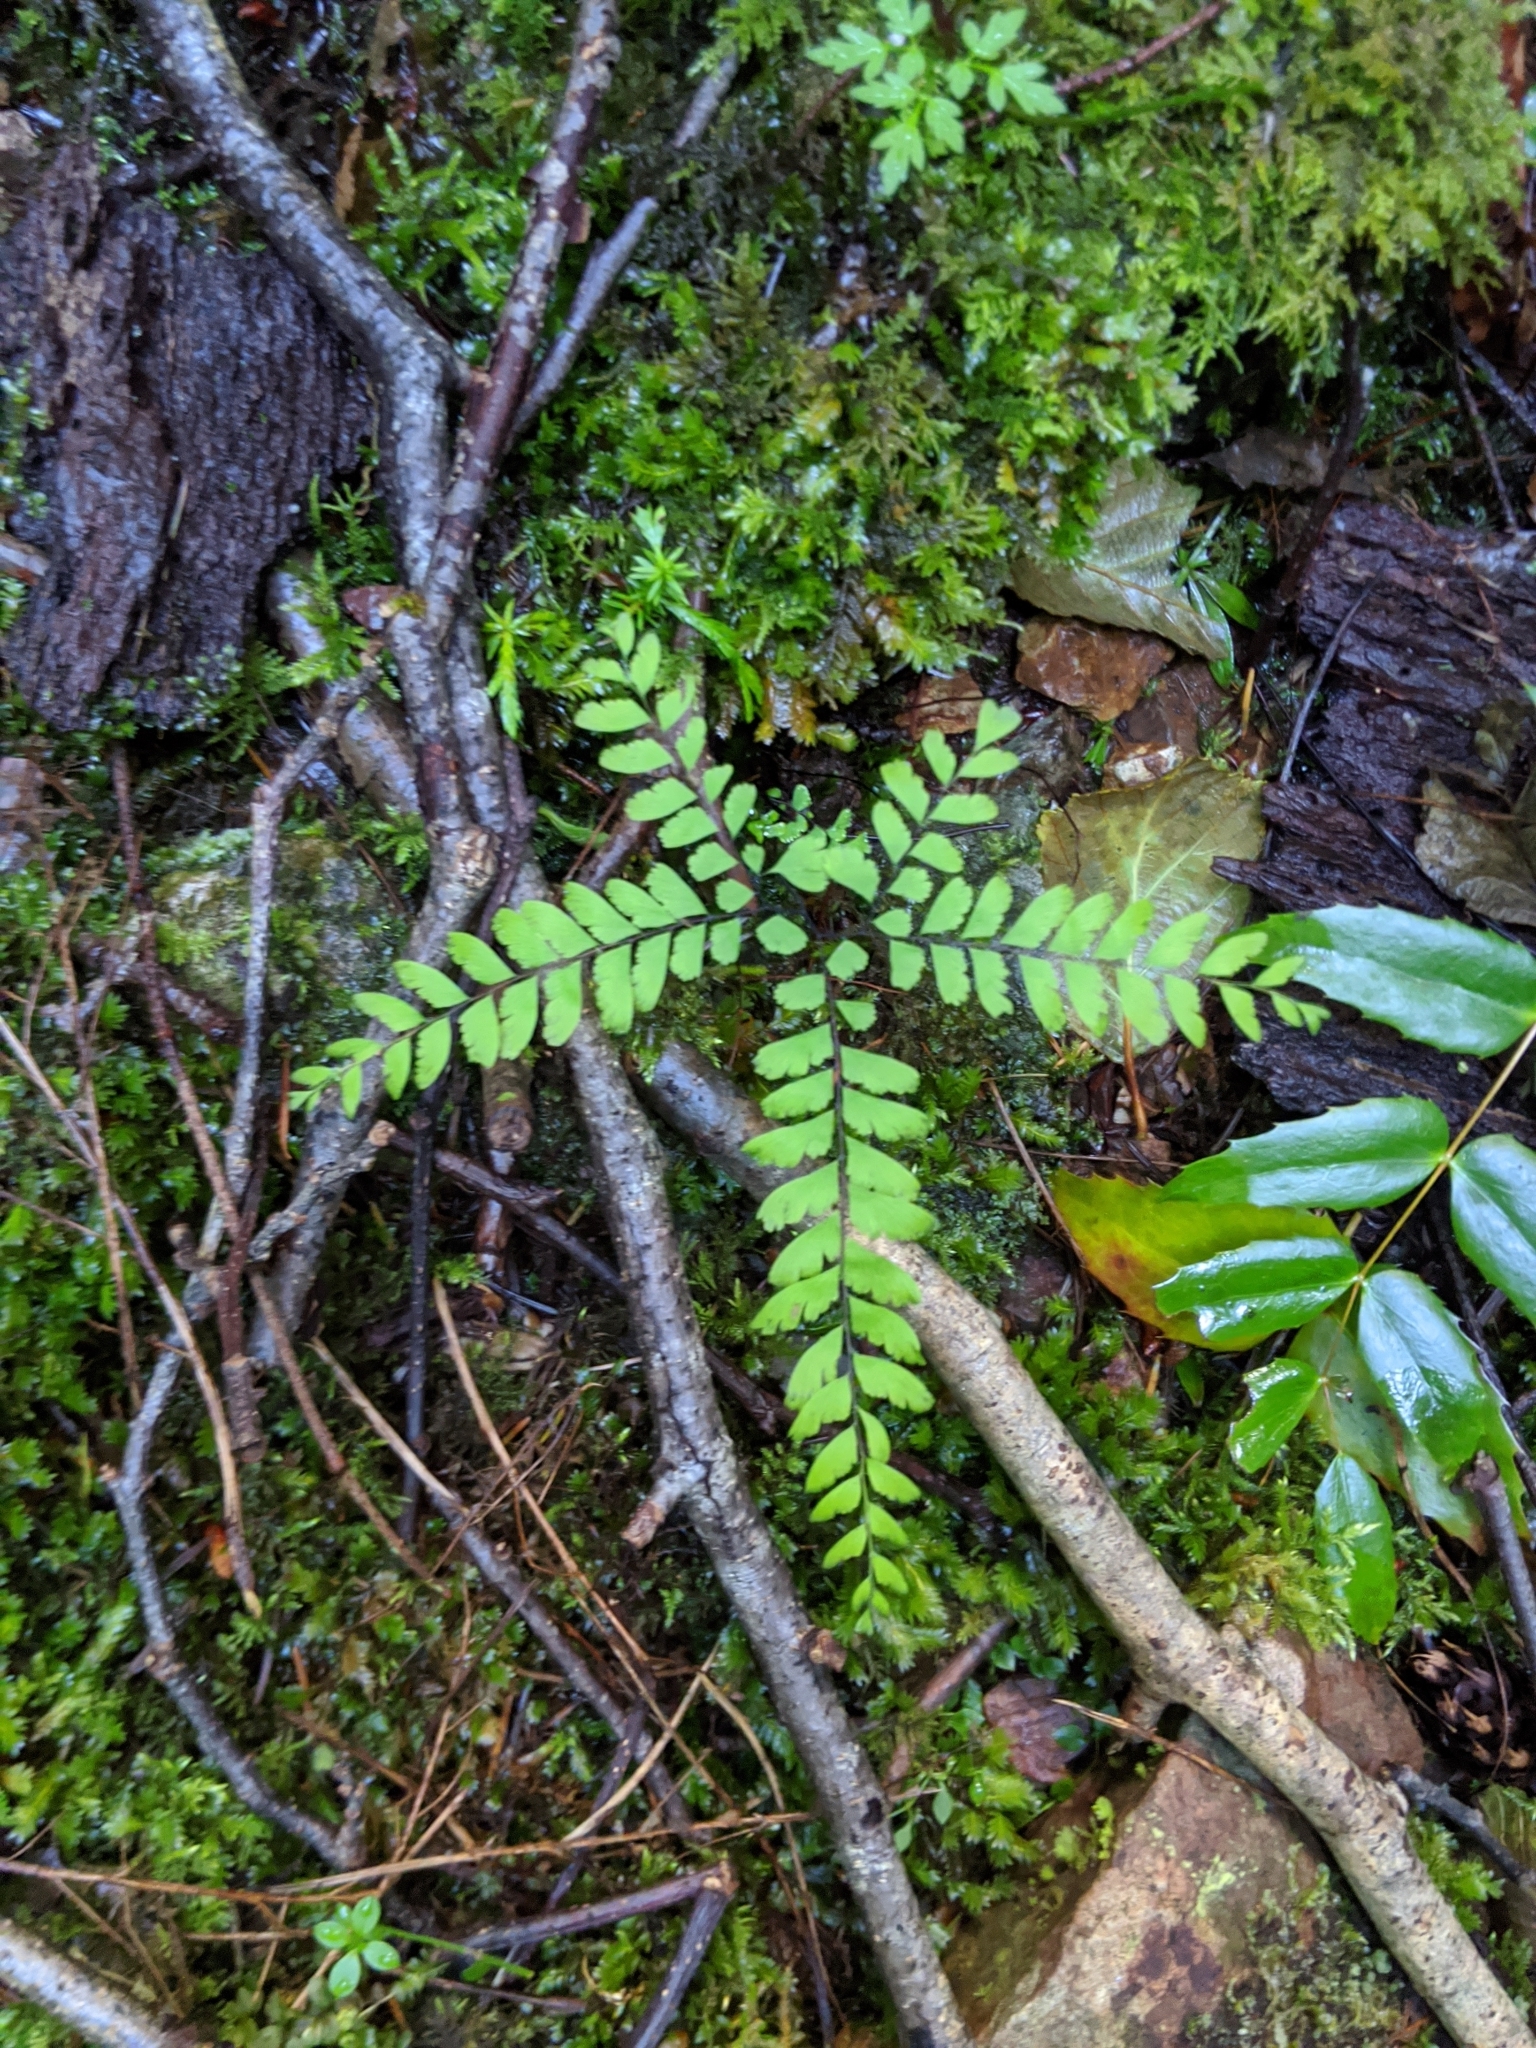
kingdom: Plantae
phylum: Tracheophyta
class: Polypodiopsida
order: Polypodiales
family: Pteridaceae
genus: Adiantum
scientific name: Adiantum aleuticum
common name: Aleutian maidenhair fern
